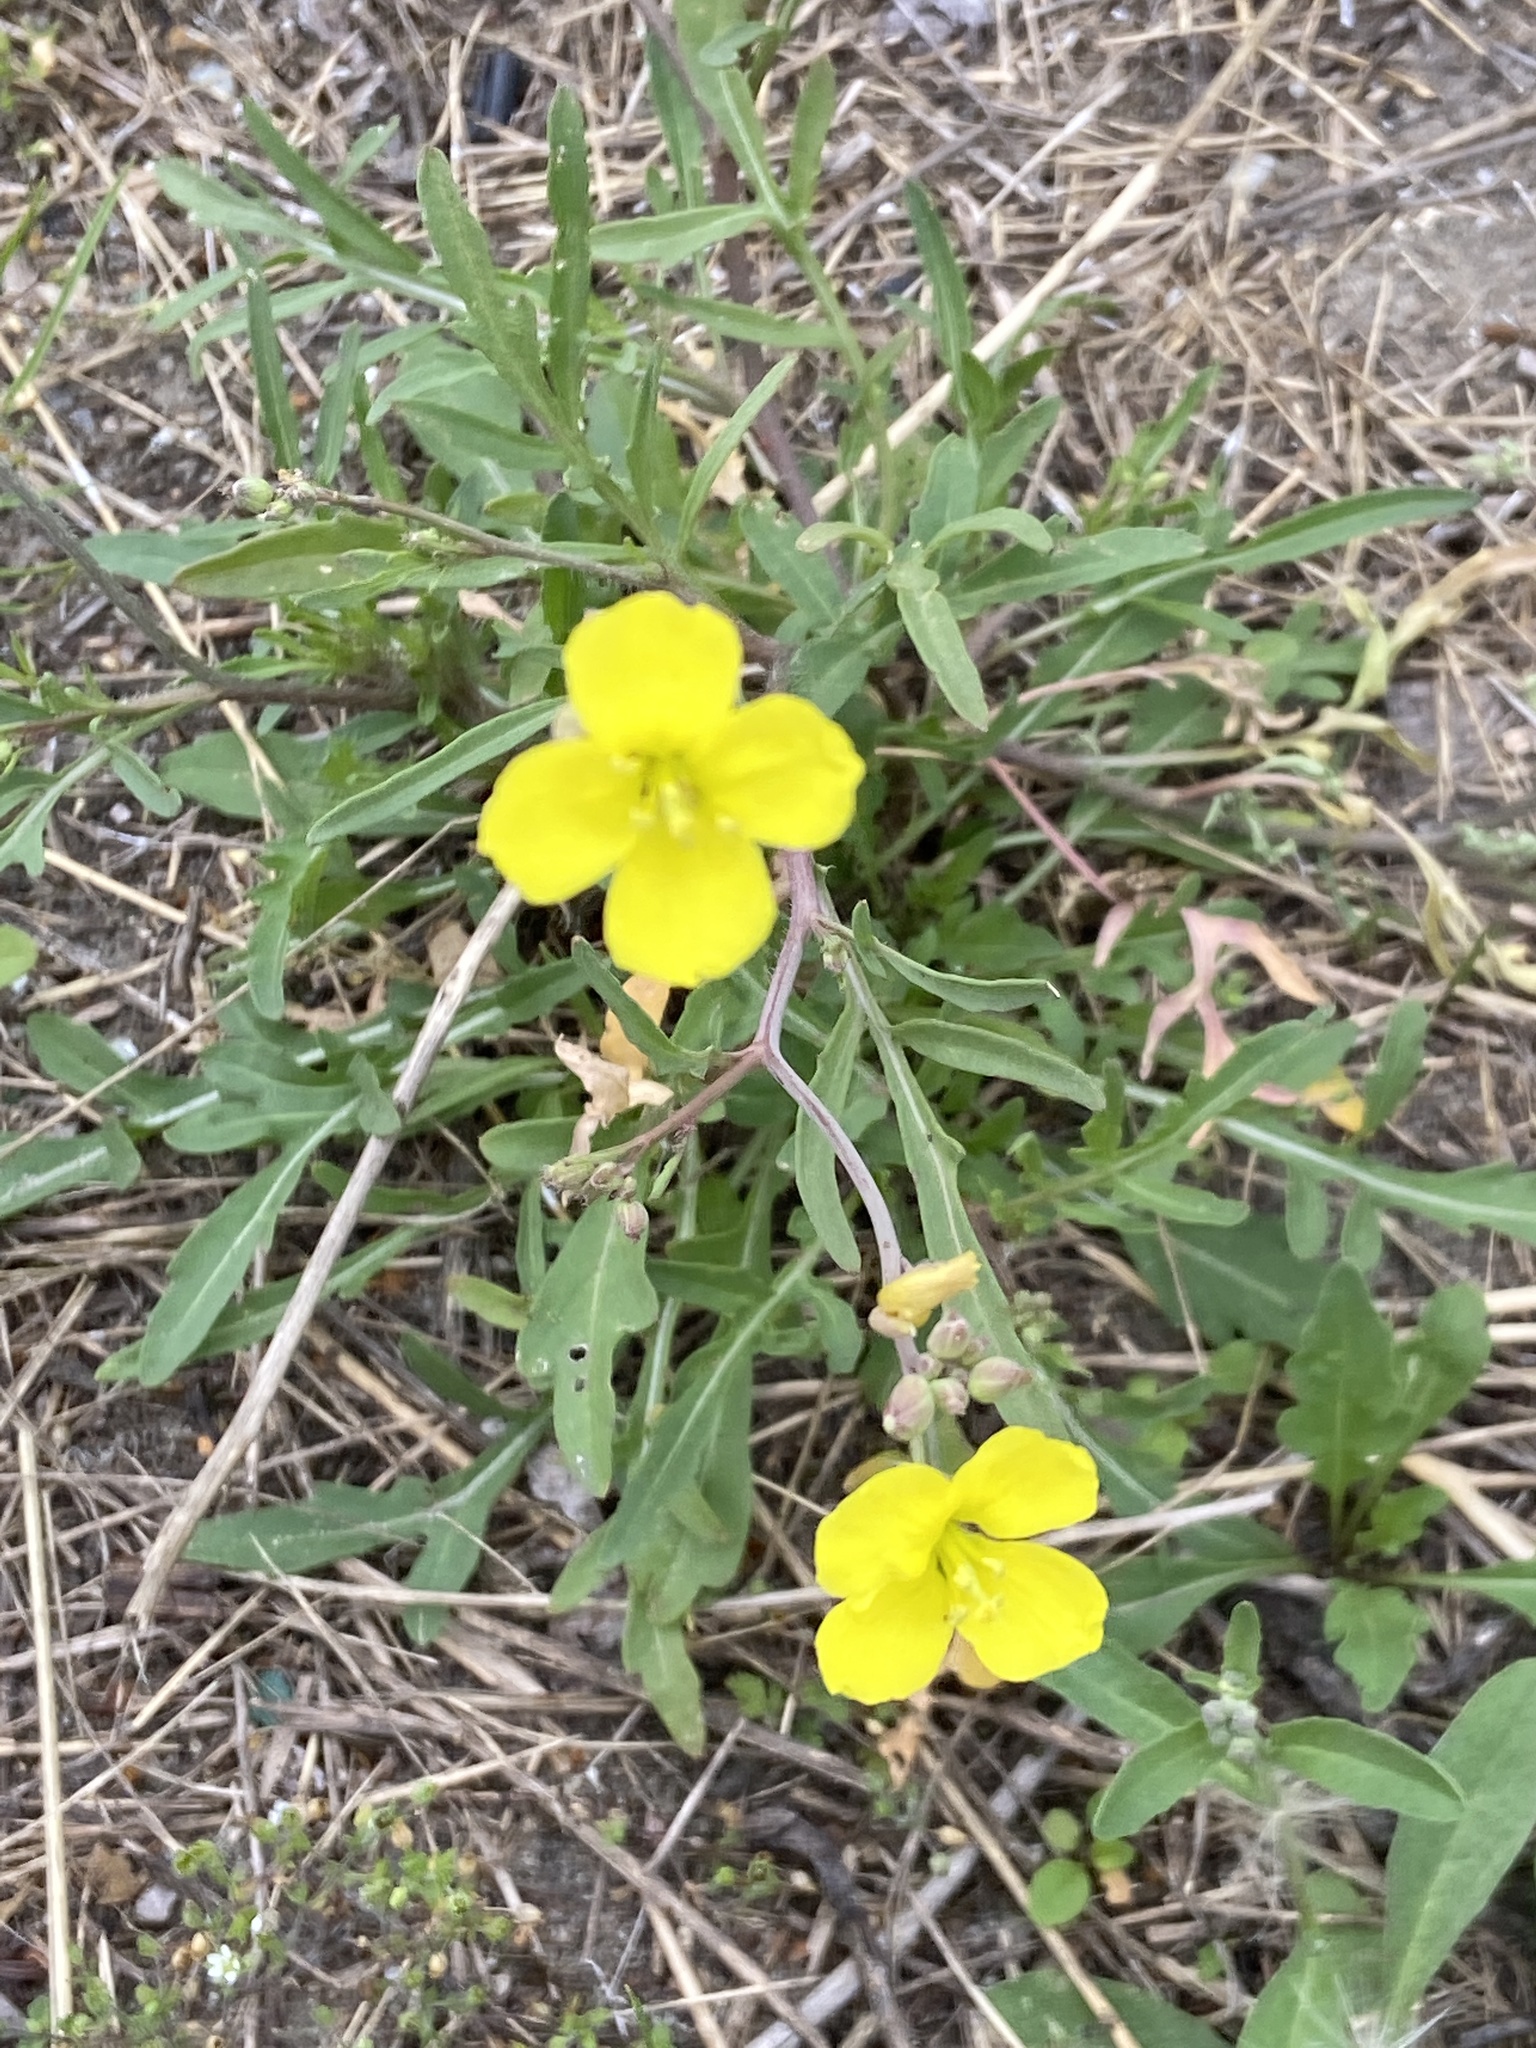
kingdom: Plantae
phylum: Tracheophyta
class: Magnoliopsida
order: Brassicales
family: Brassicaceae
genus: Diplotaxis
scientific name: Diplotaxis tenuifolia
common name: Perennial wall-rocket
